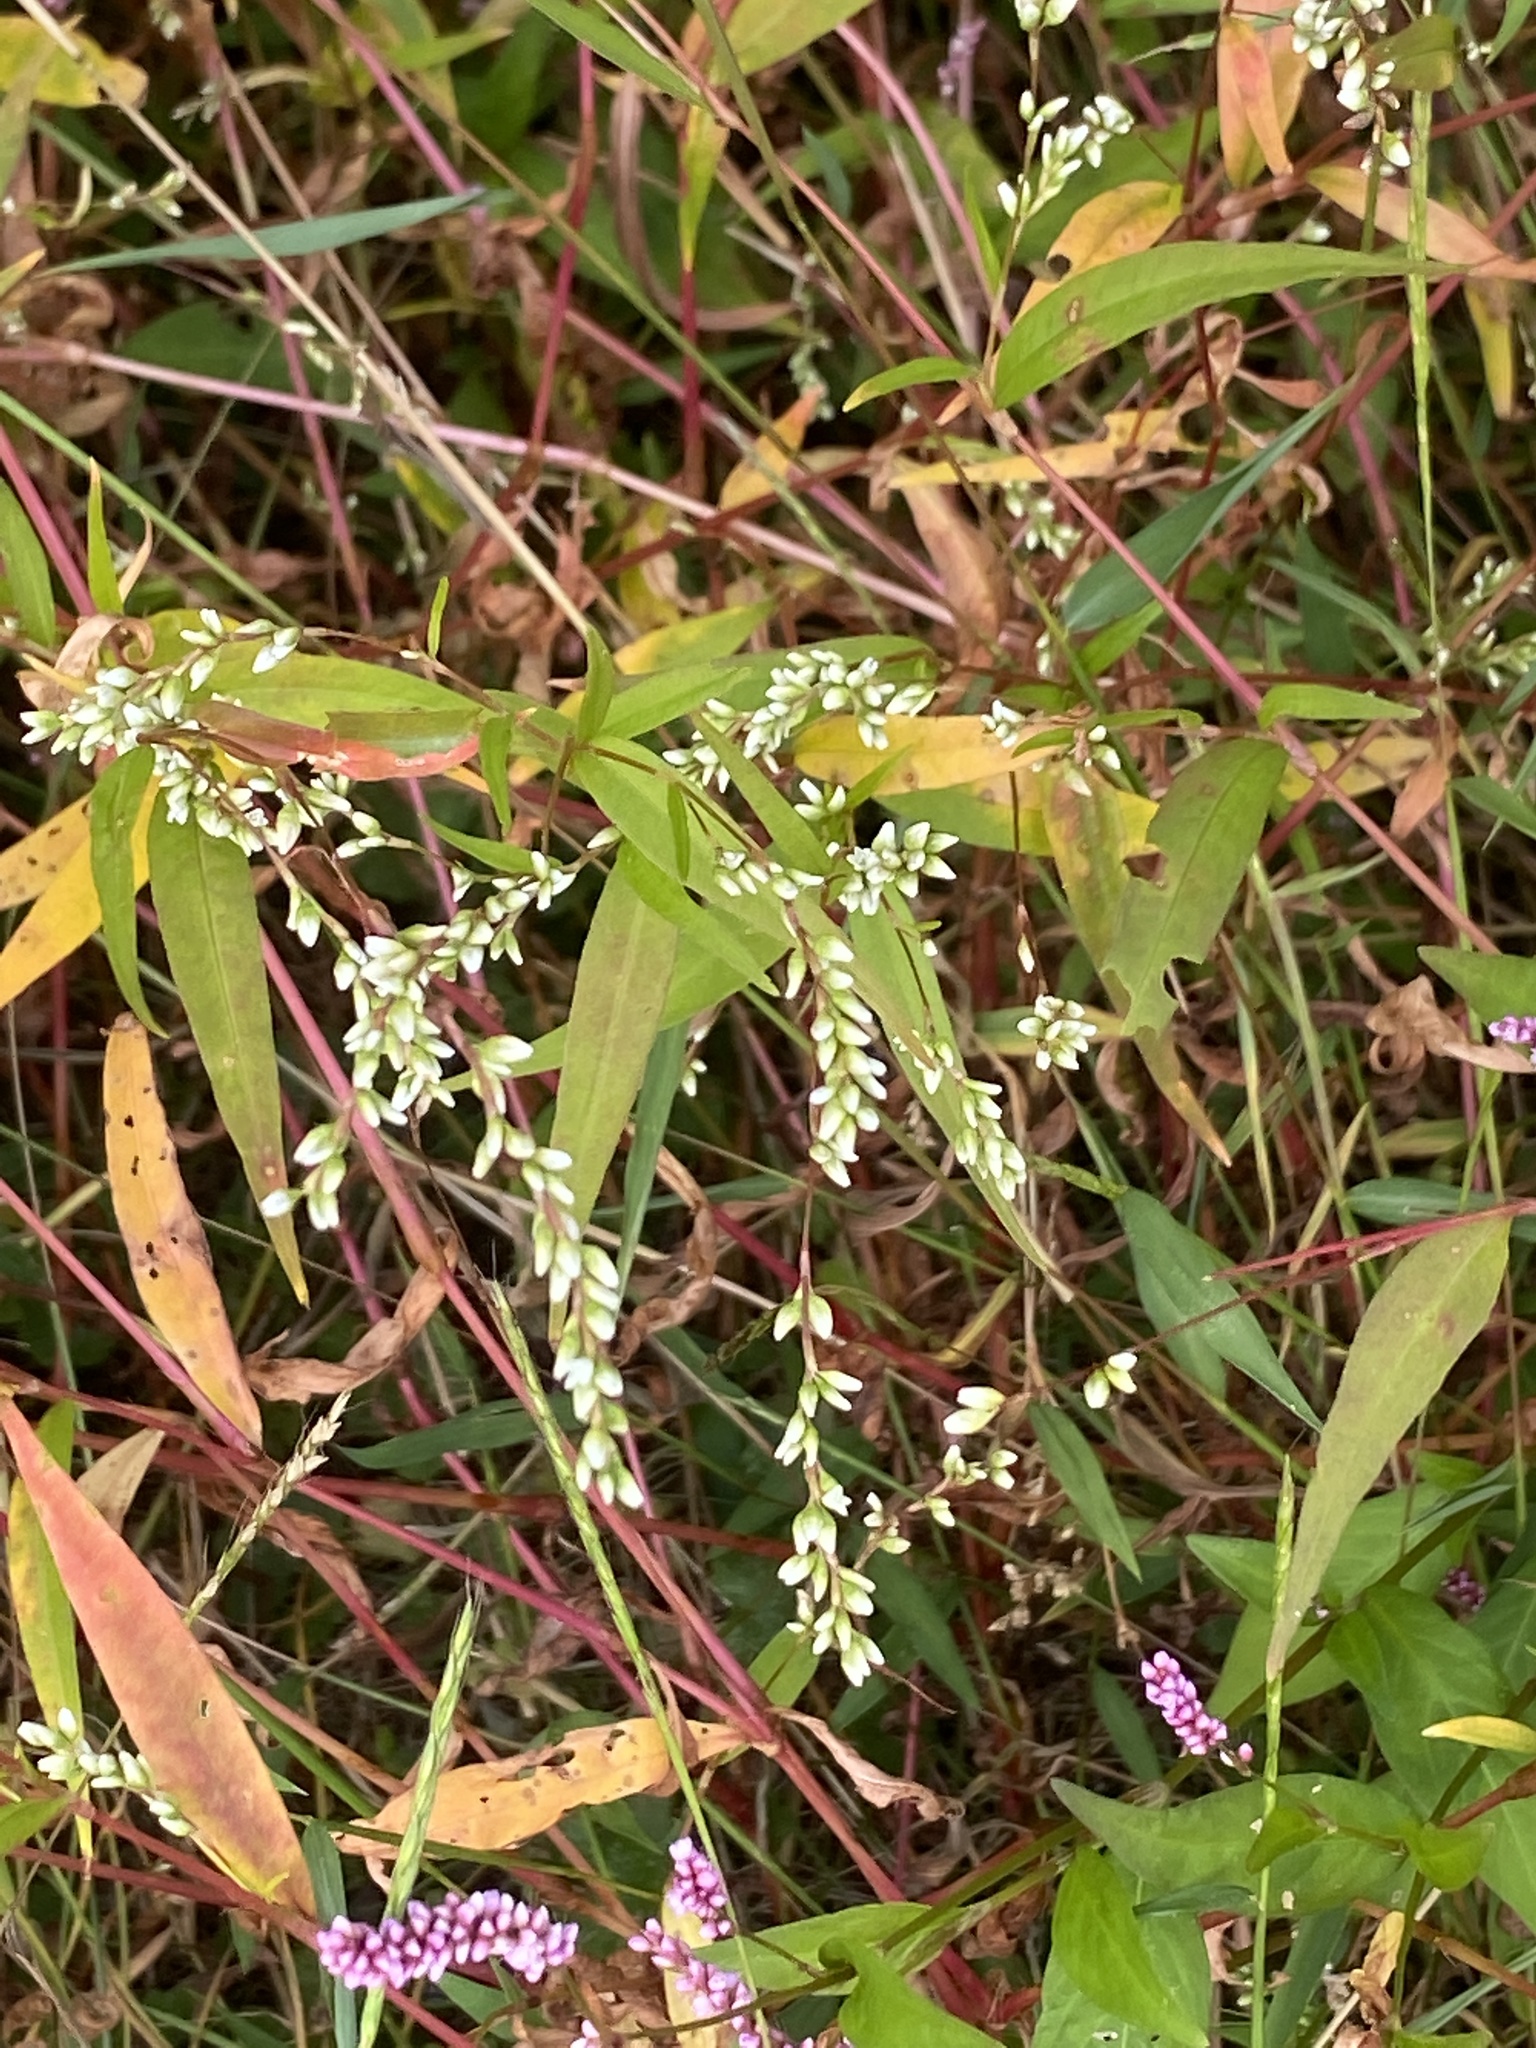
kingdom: Plantae
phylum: Tracheophyta
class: Magnoliopsida
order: Caryophyllales
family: Polygonaceae
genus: Persicaria
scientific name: Persicaria punctata
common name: Dotted smartweed
